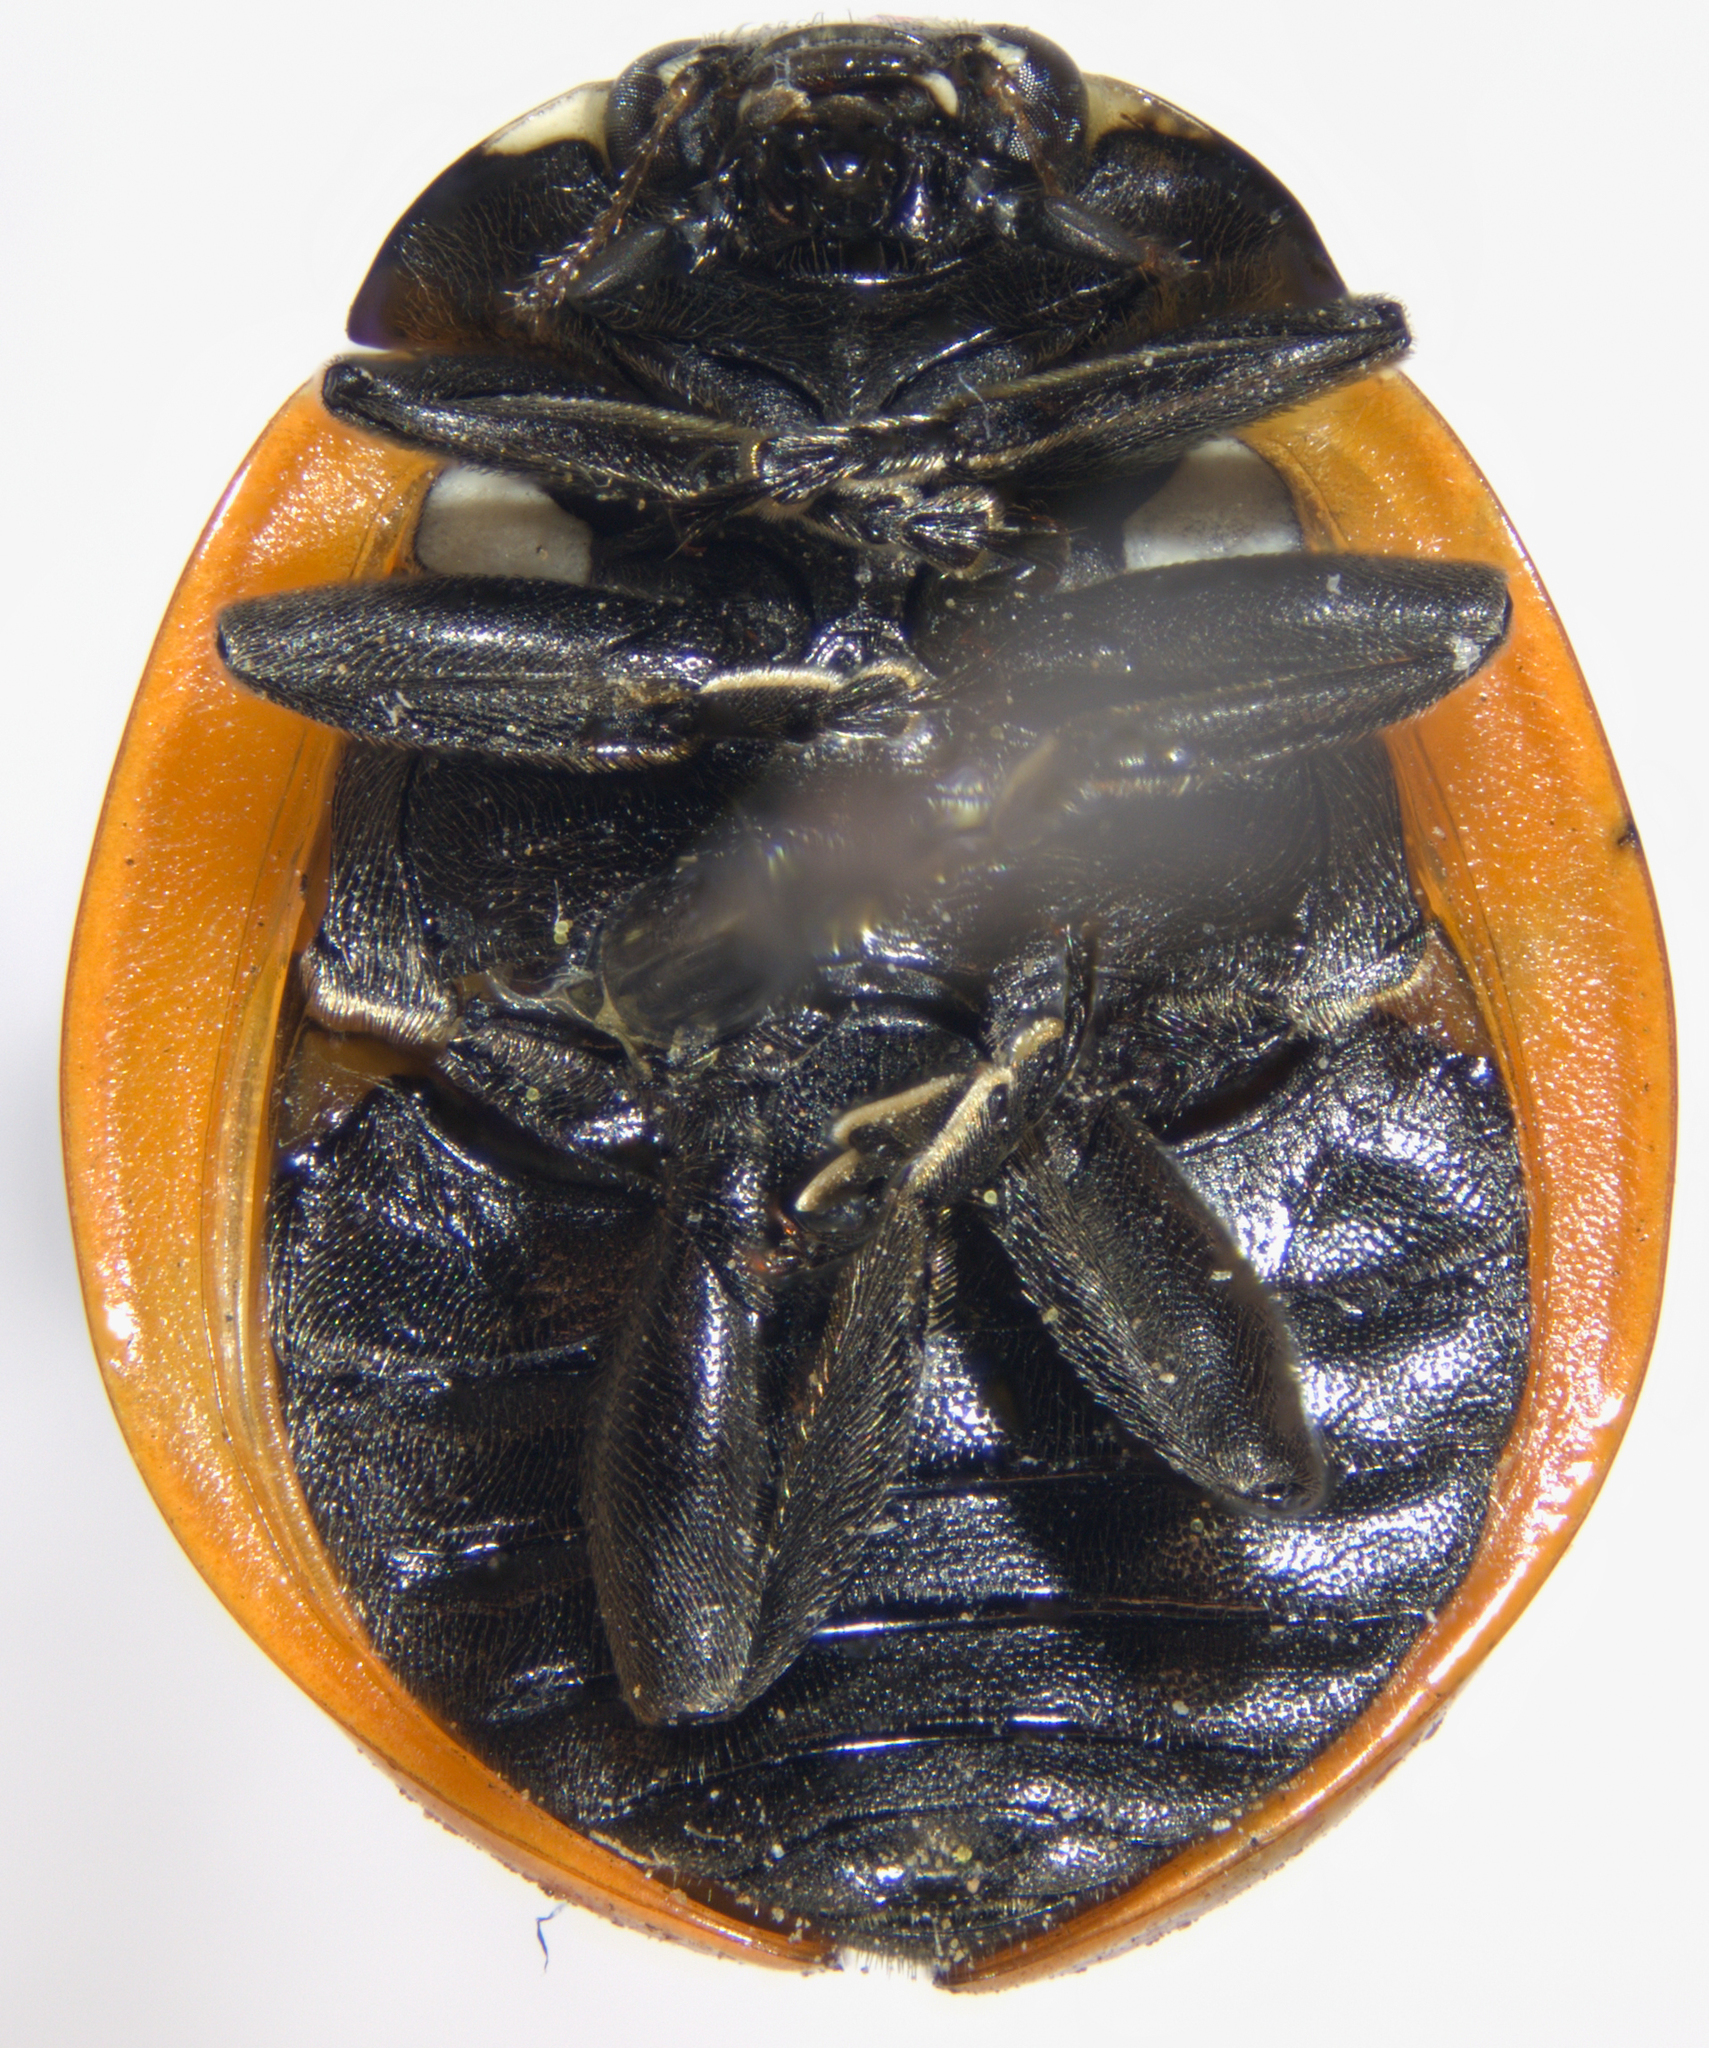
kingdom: Animalia
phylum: Arthropoda
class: Insecta
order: Coleoptera
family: Coccinellidae
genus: Coccinella
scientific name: Coccinella septempunctata
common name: Sevenspotted lady beetle
